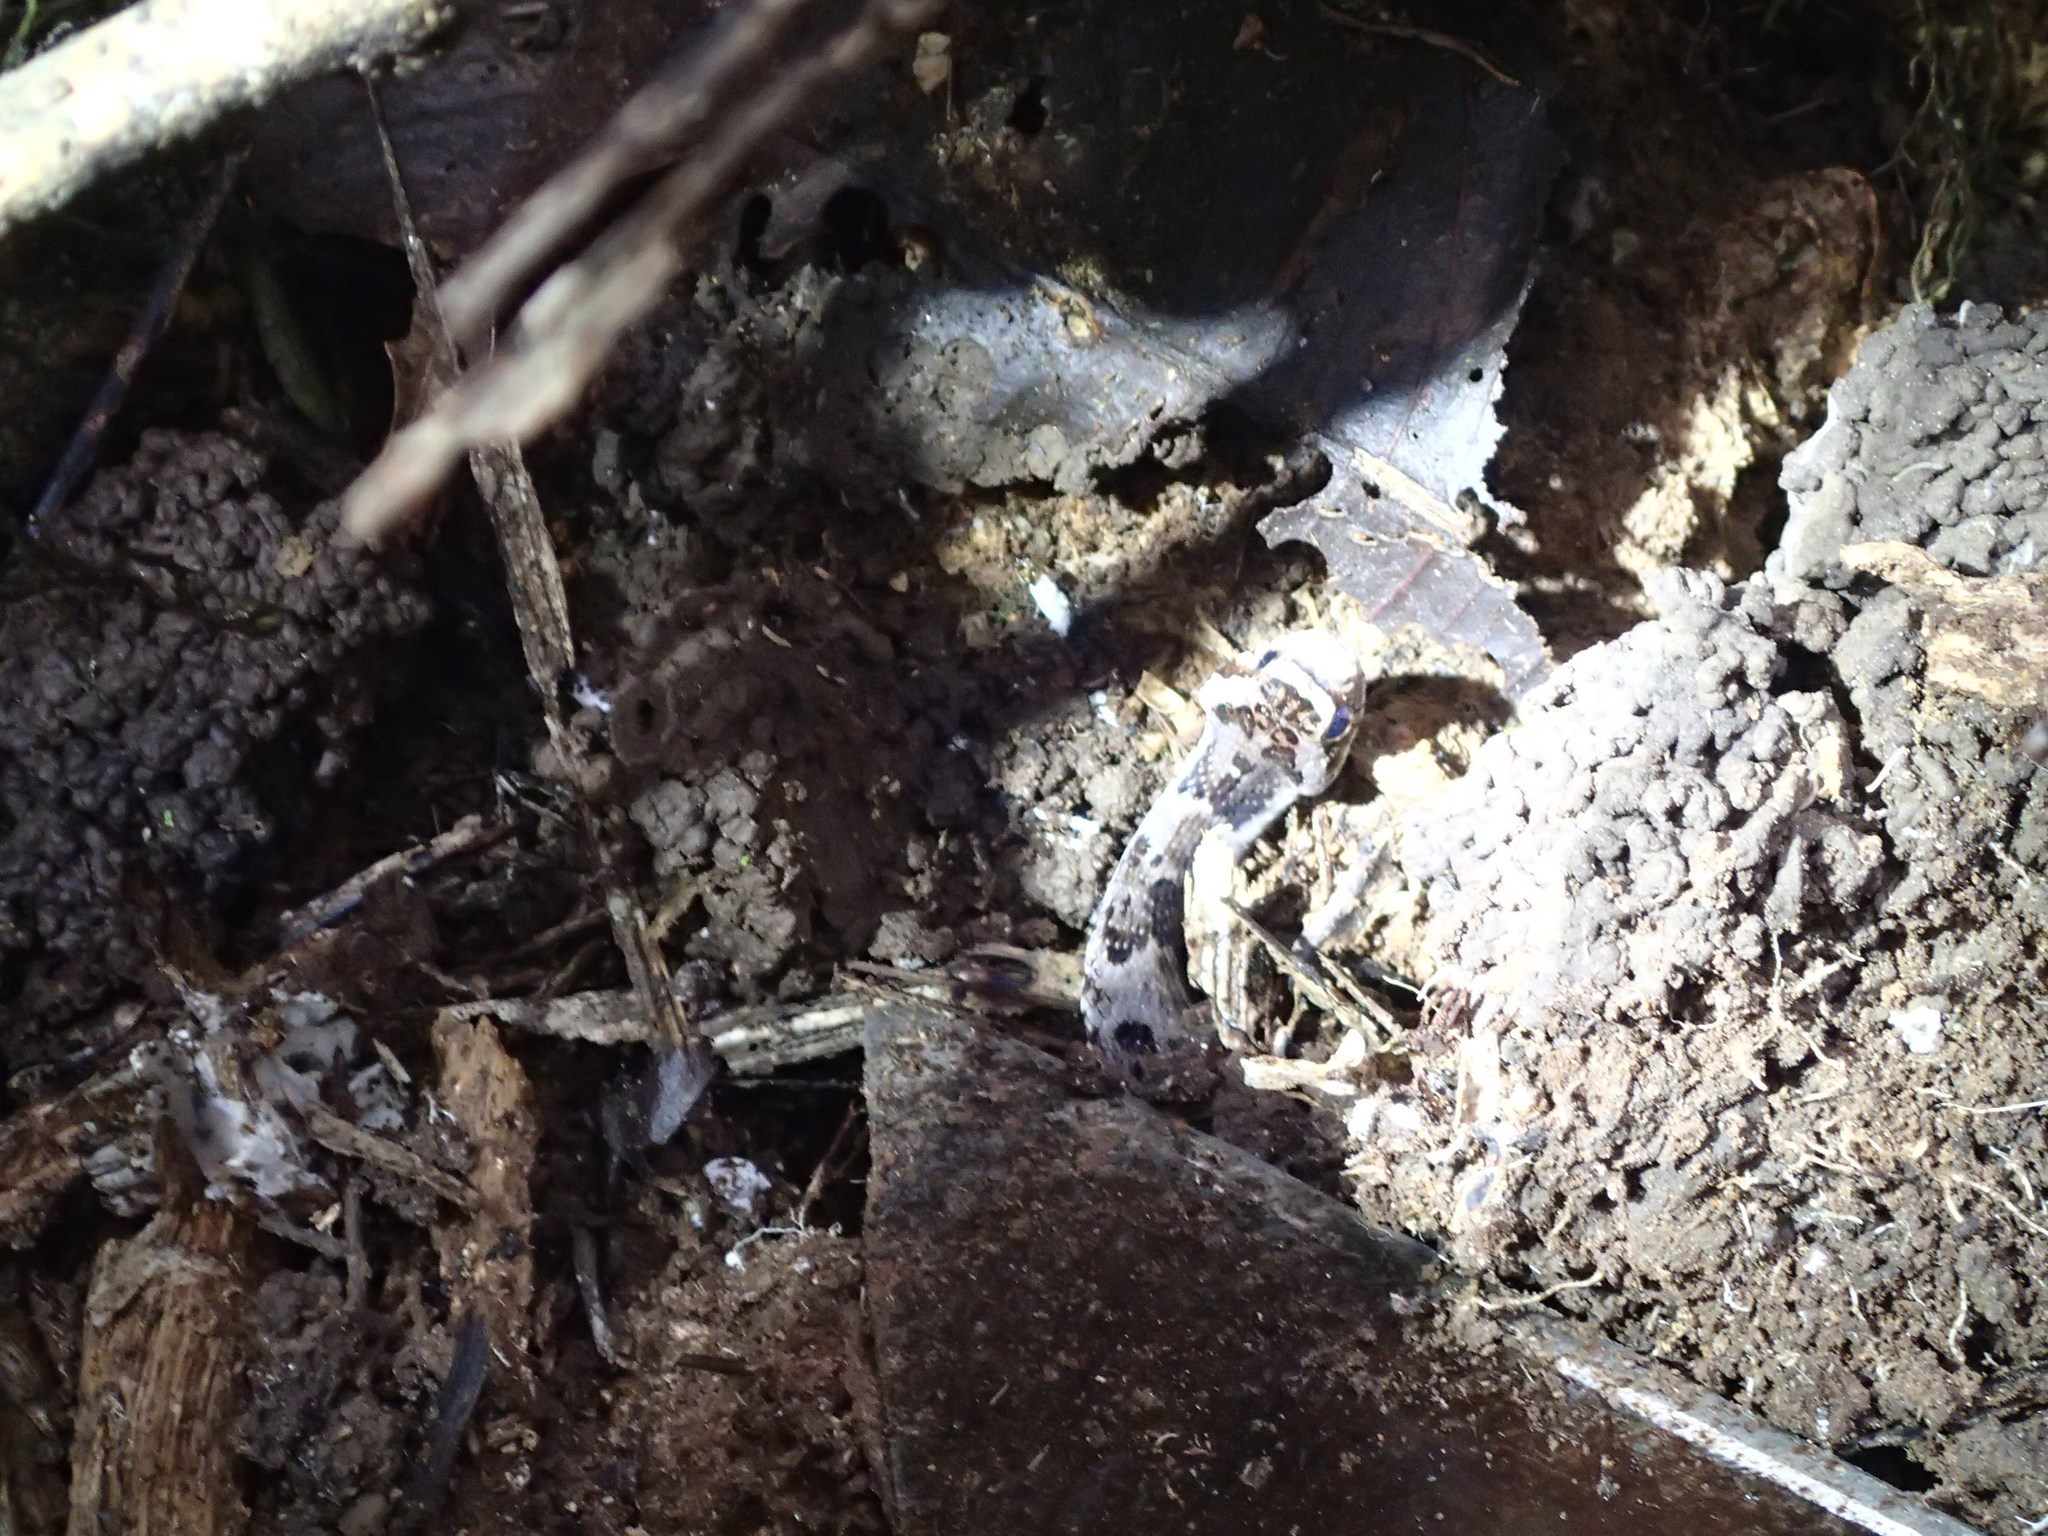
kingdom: Animalia
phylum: Chordata
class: Squamata
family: Colubridae
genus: Xenodon
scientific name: Xenodon rabdocephalus
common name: False fer-de-lance
